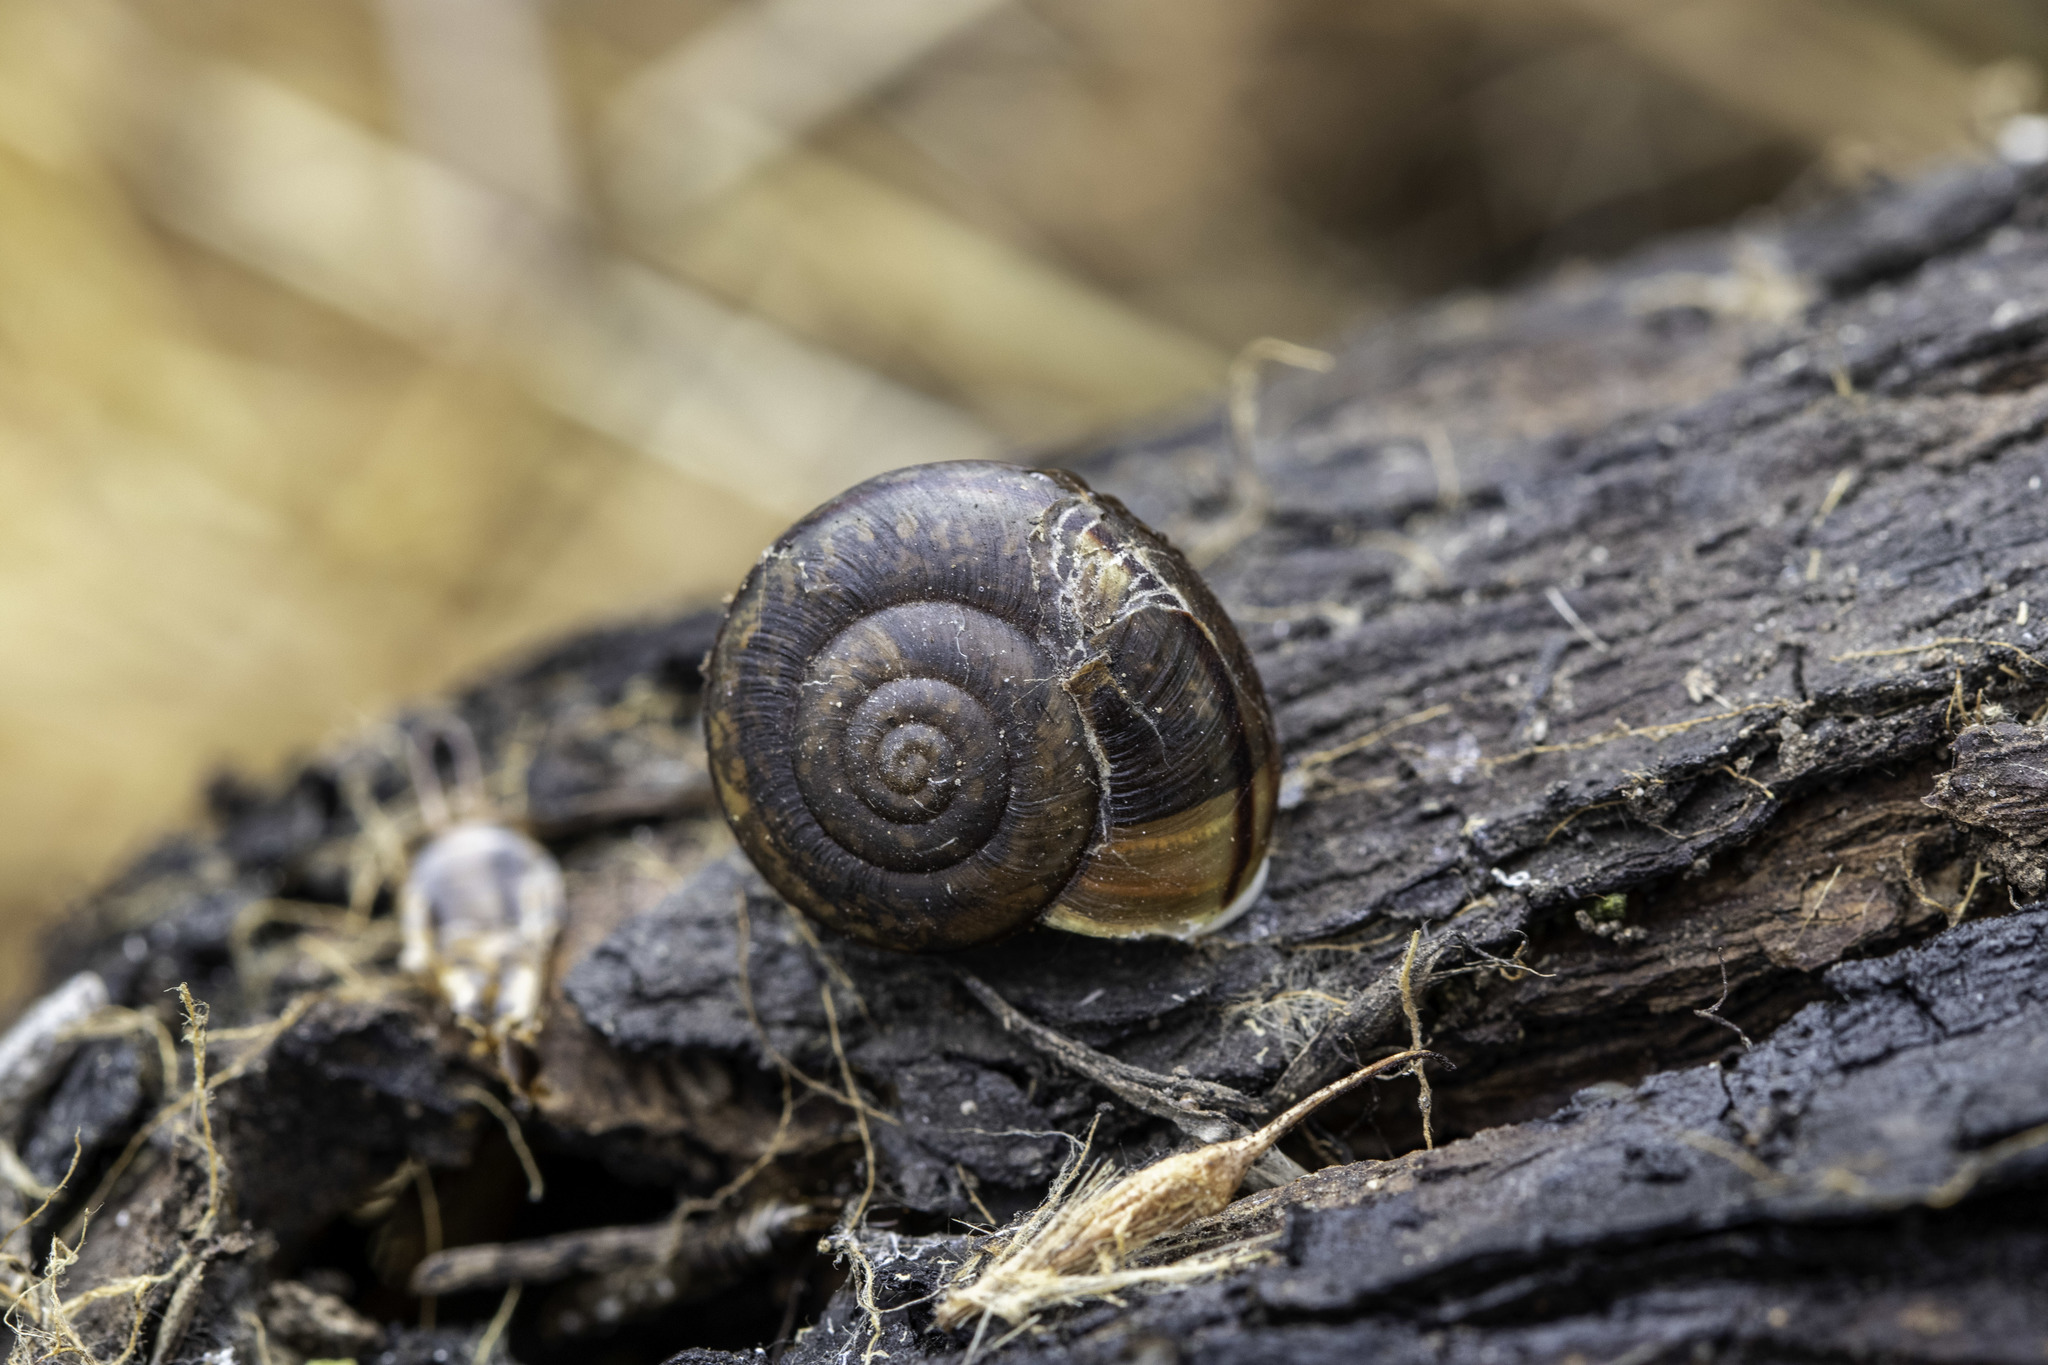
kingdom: Animalia
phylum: Mollusca
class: Gastropoda
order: Stylommatophora
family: Xanthonychidae
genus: Helminthoglypta
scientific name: Helminthoglypta traskii
